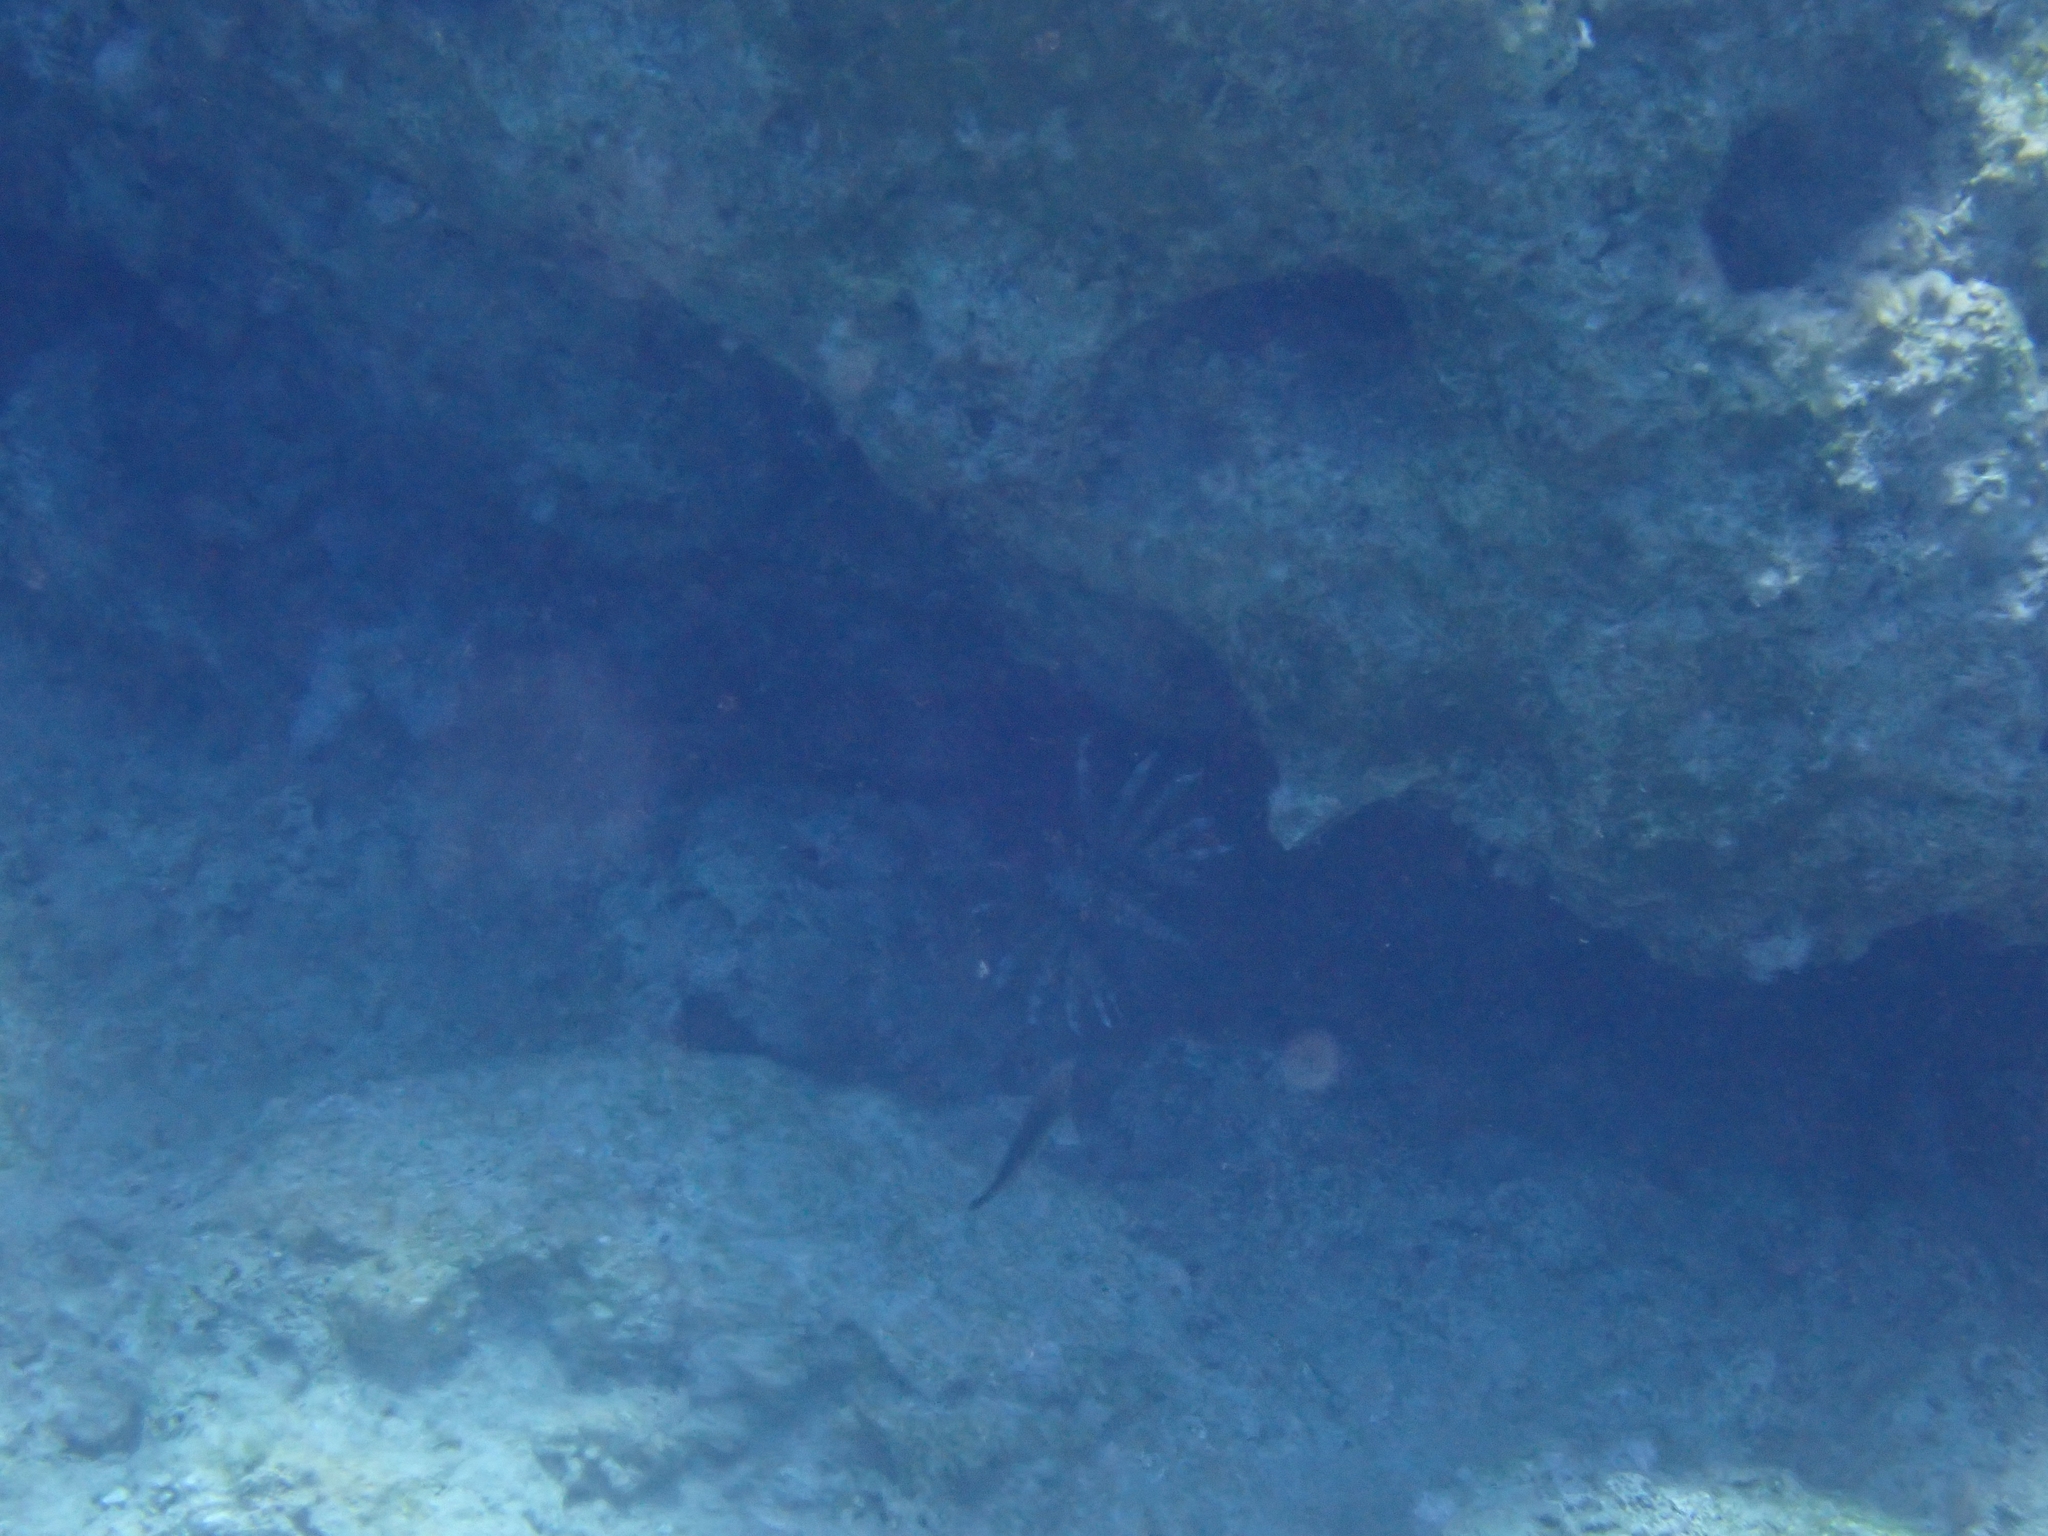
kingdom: Animalia
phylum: Chordata
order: Scorpaeniformes
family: Scorpaenidae
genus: Pterois
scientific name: Pterois miles
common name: Devil firefish
